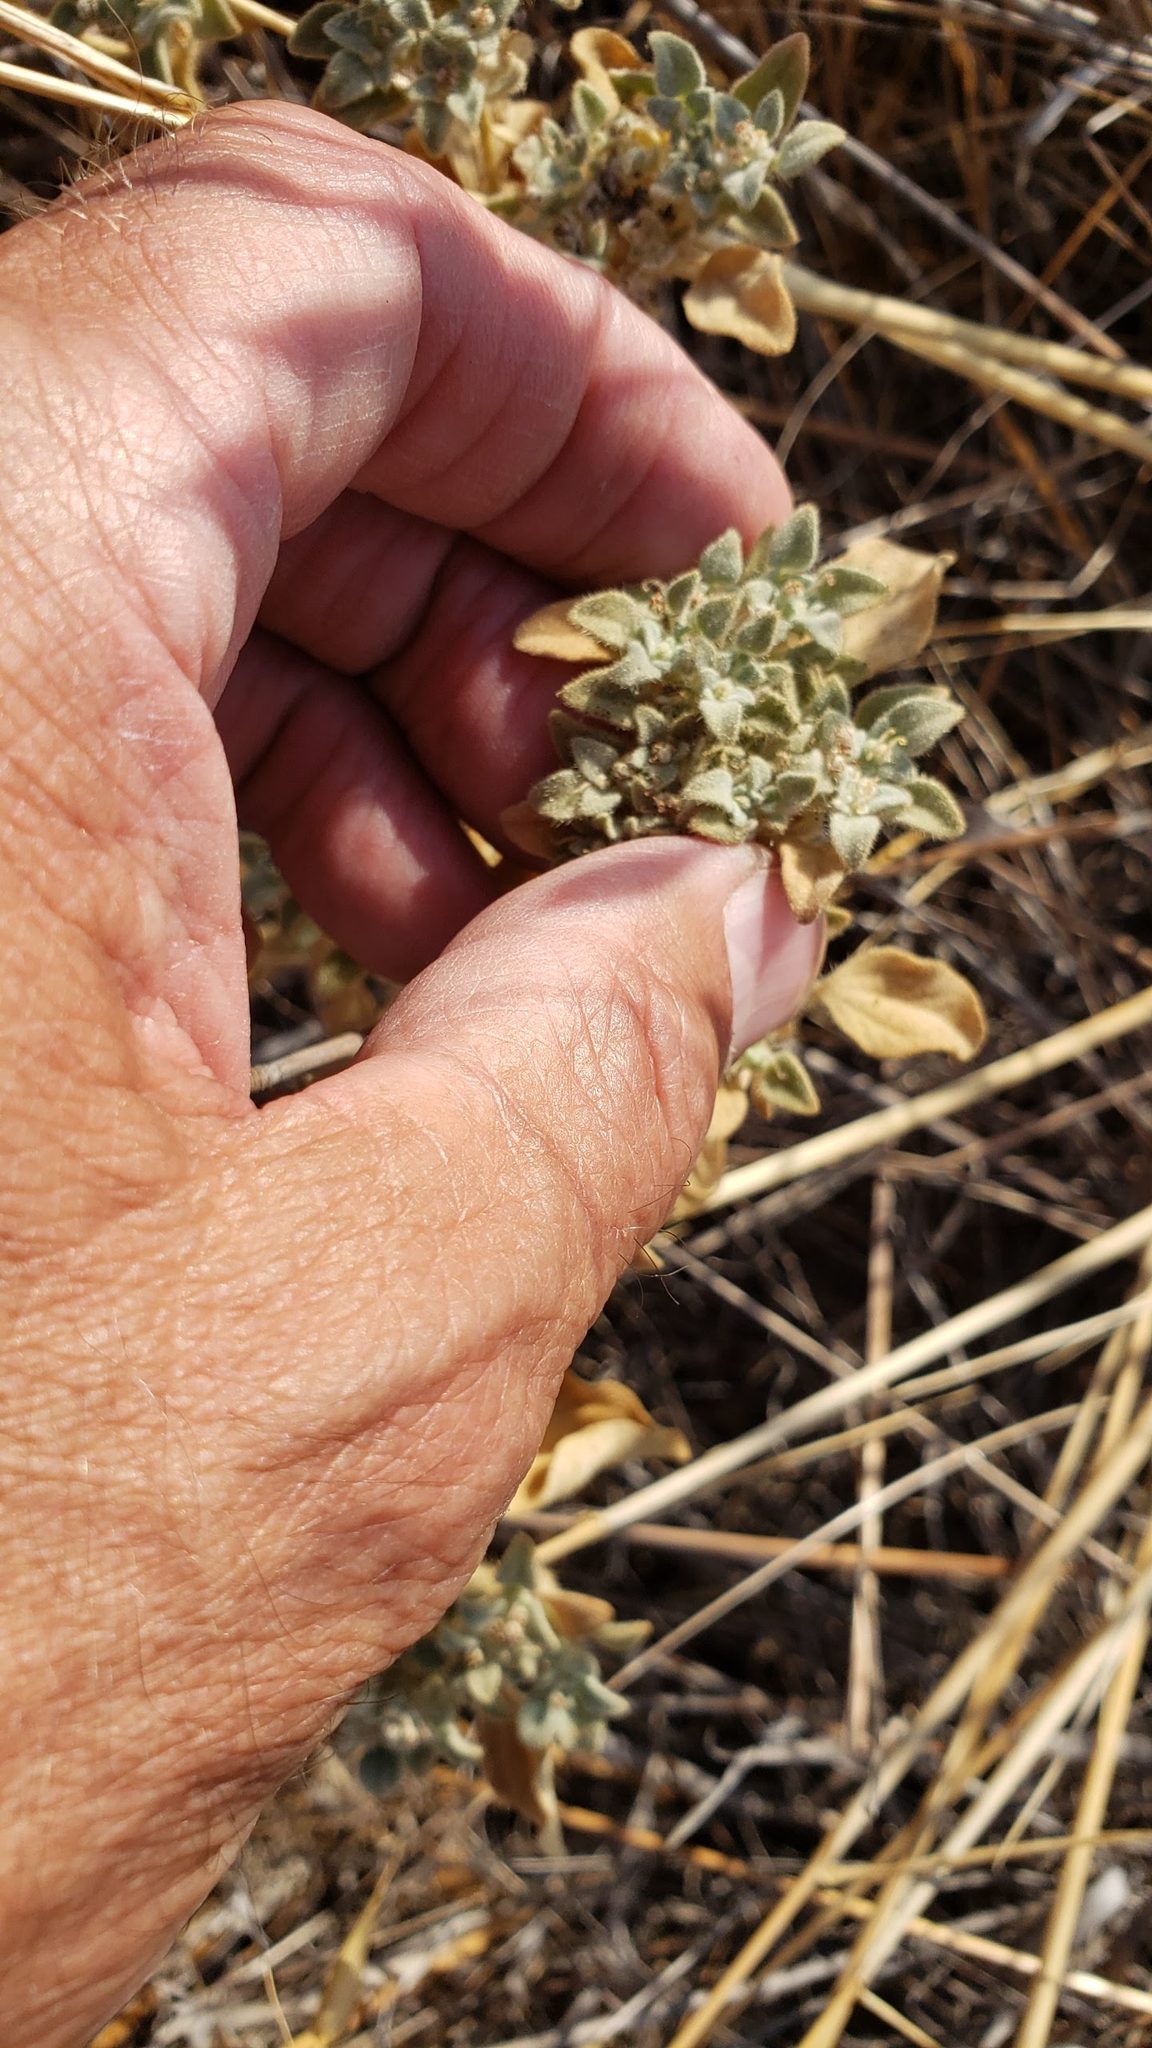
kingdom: Plantae
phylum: Tracheophyta
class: Magnoliopsida
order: Malpighiales
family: Euphorbiaceae
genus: Croton
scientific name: Croton setiger
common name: Dove weed
